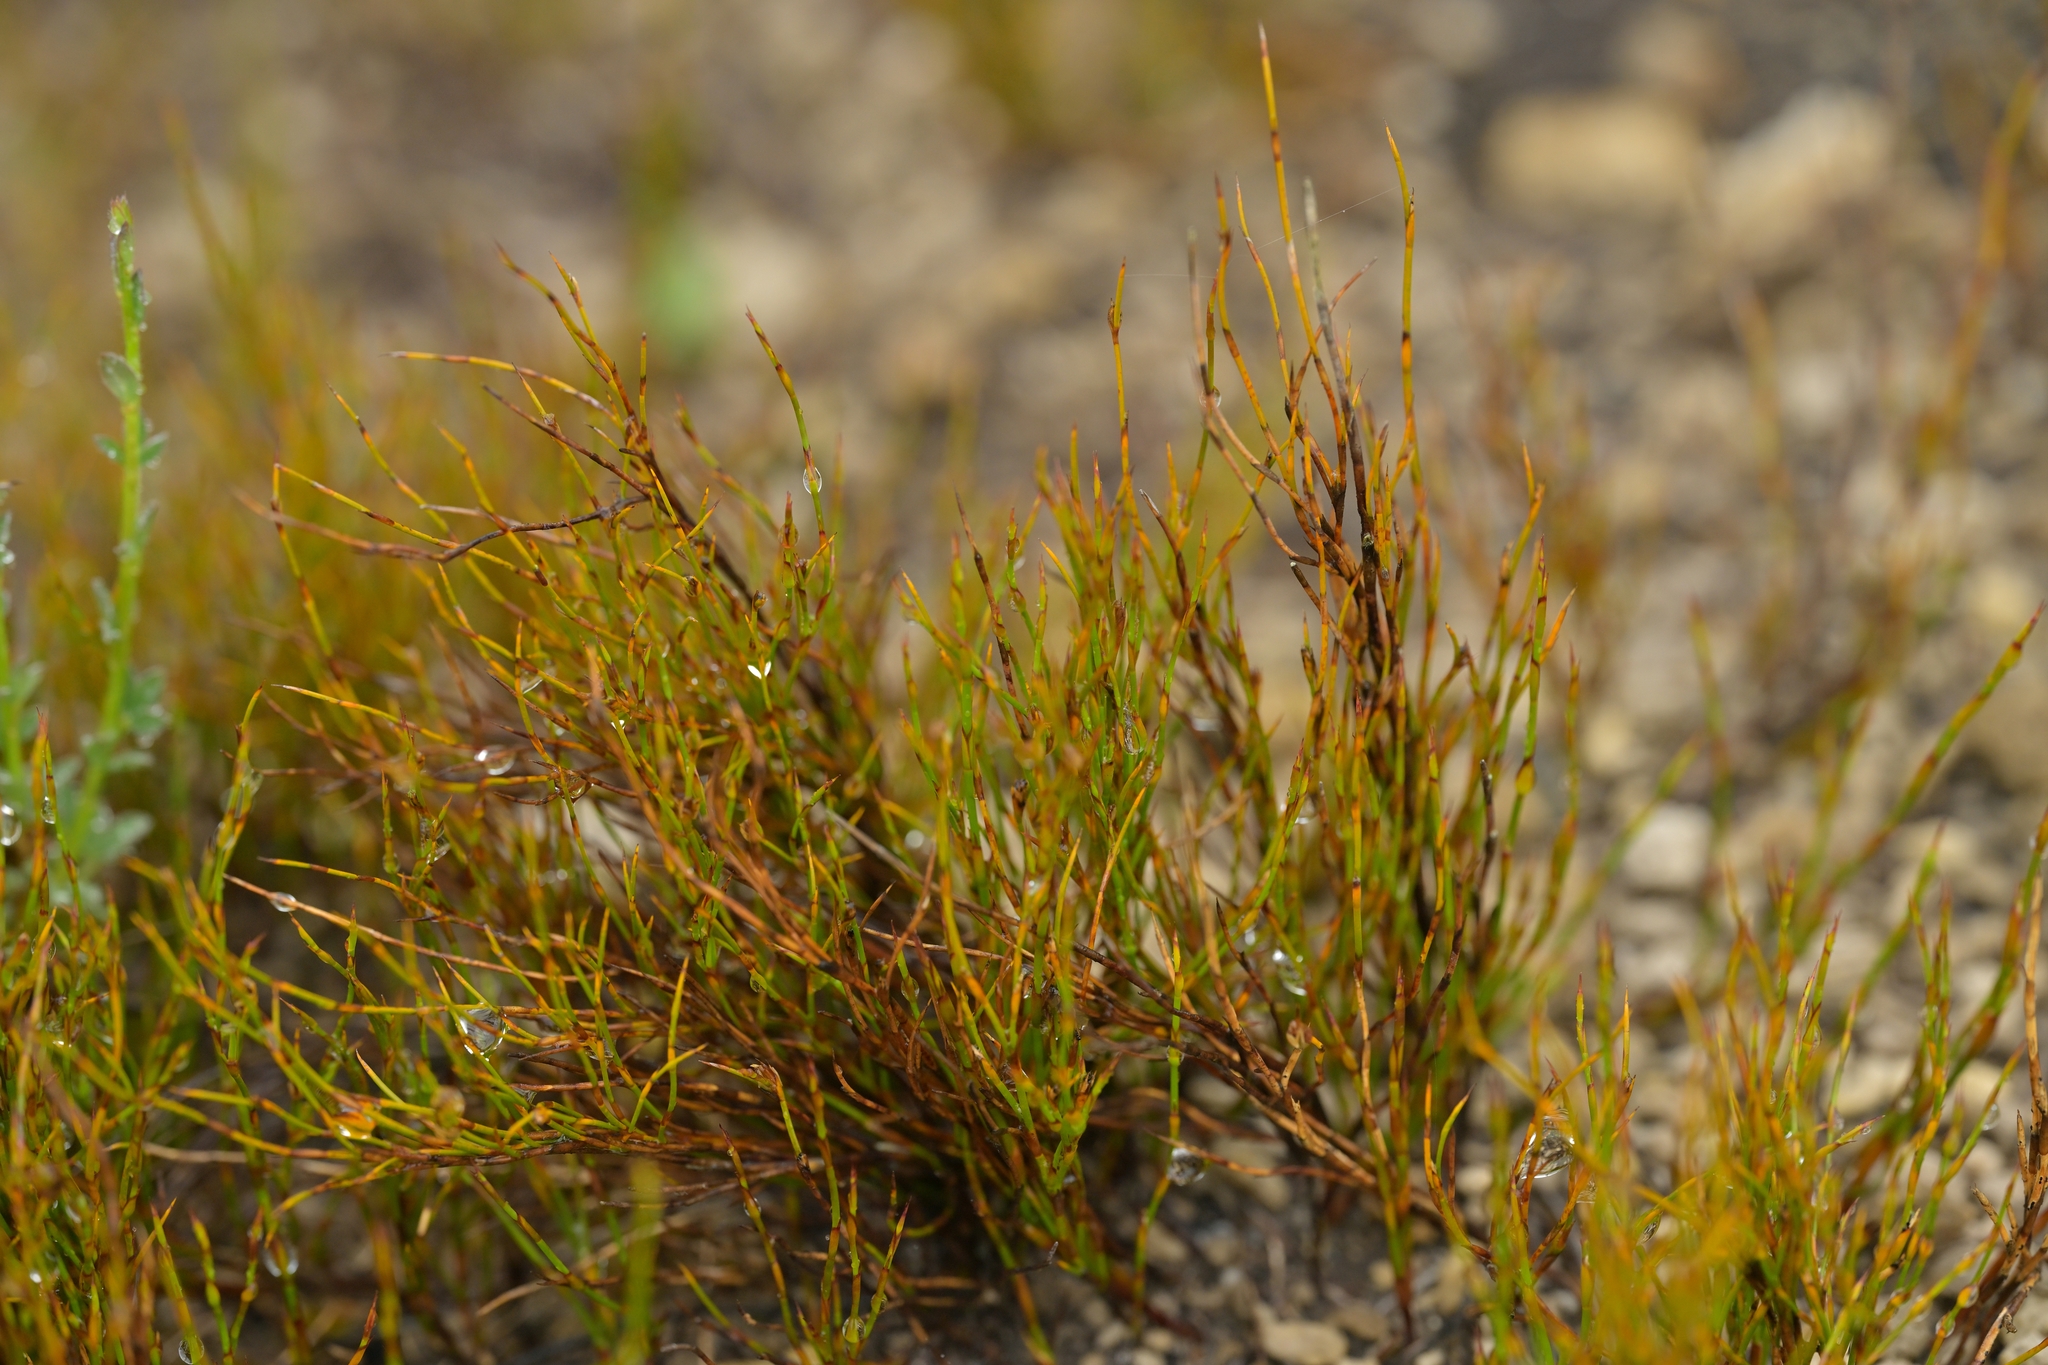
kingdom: Plantae
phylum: Tracheophyta
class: Liliopsida
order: Poales
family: Restionaceae
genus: Empodisma
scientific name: Empodisma minus
